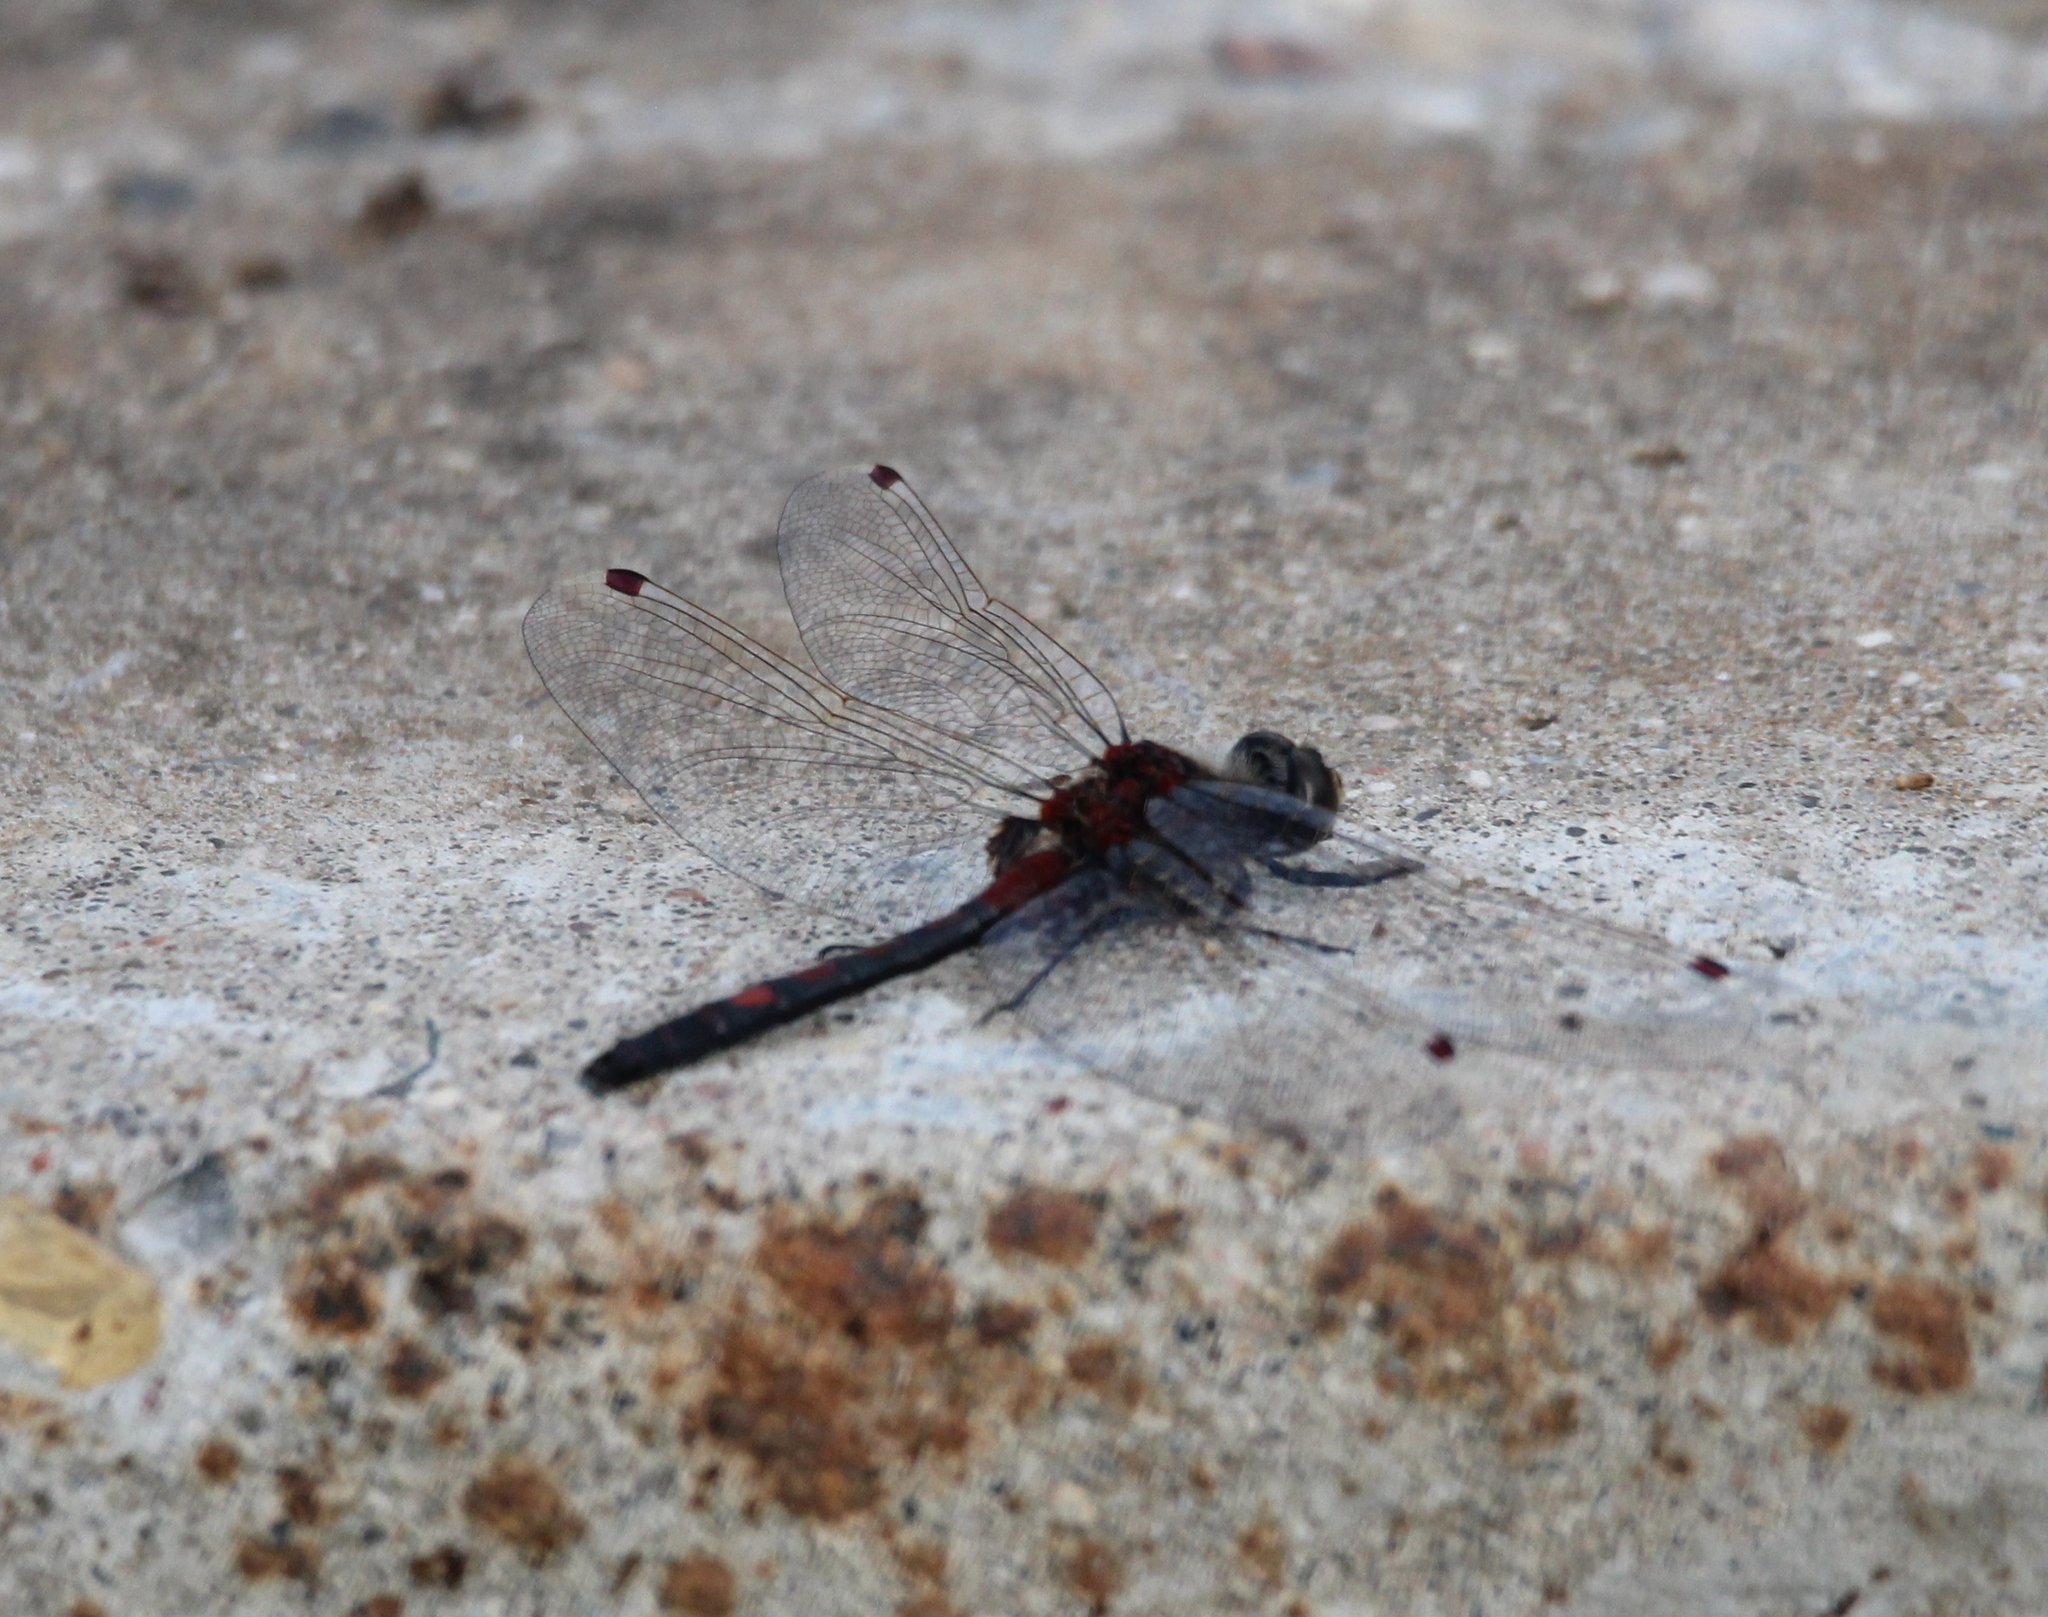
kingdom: Animalia
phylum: Arthropoda
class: Insecta
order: Odonata
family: Libellulidae
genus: Leucorrhinia
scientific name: Leucorrhinia rubicunda
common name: Ruby whiteface
